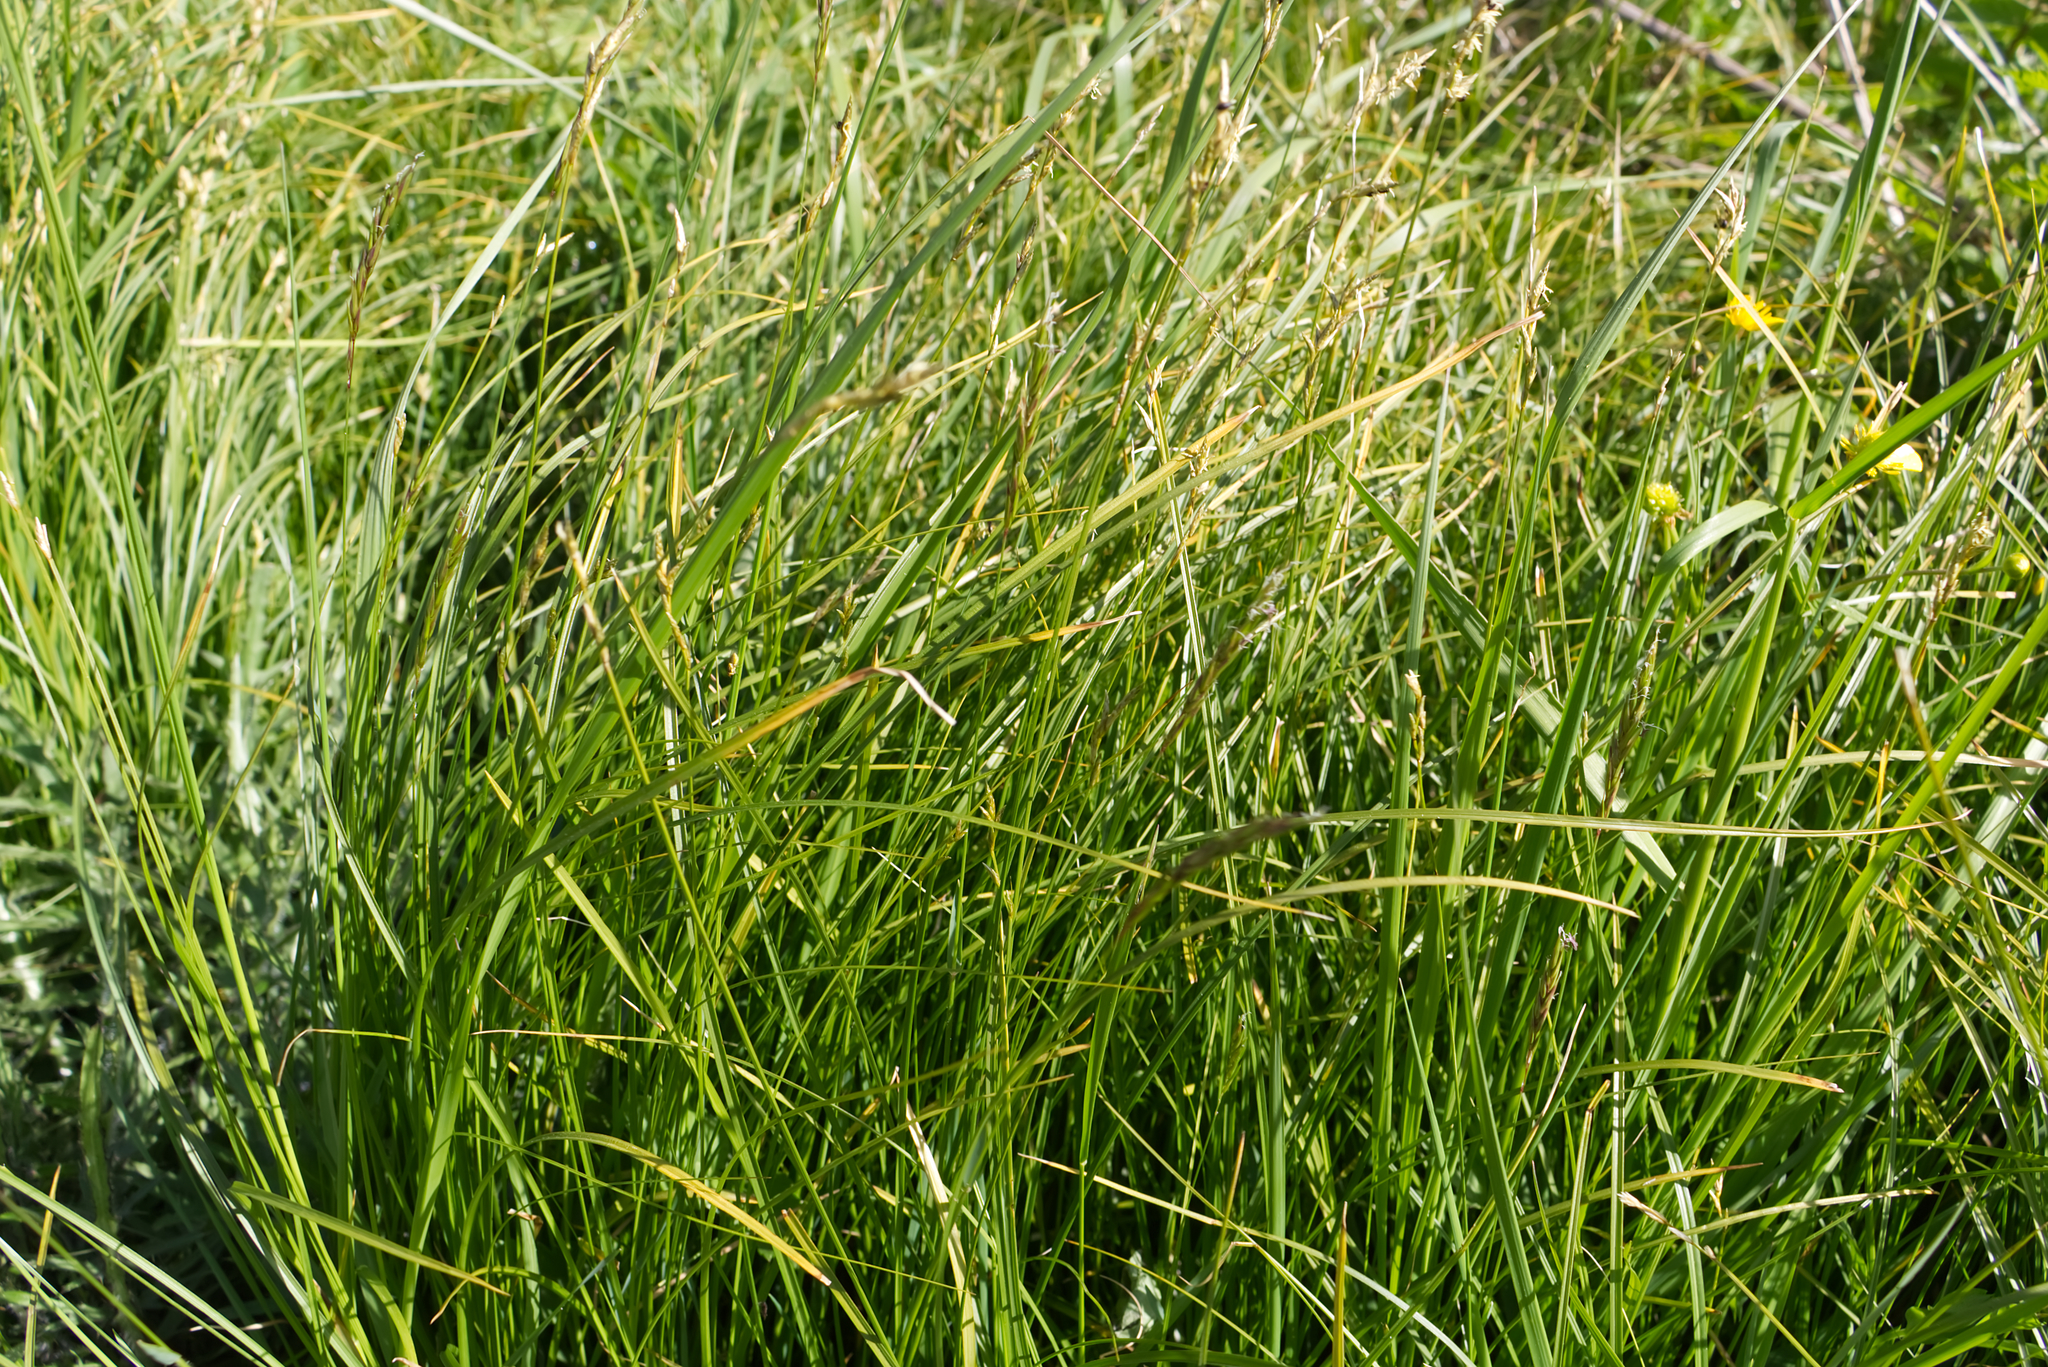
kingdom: Plantae
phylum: Tracheophyta
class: Liliopsida
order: Poales
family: Cyperaceae
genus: Carex
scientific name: Carex brizoides
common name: Quaking-grass sedge
